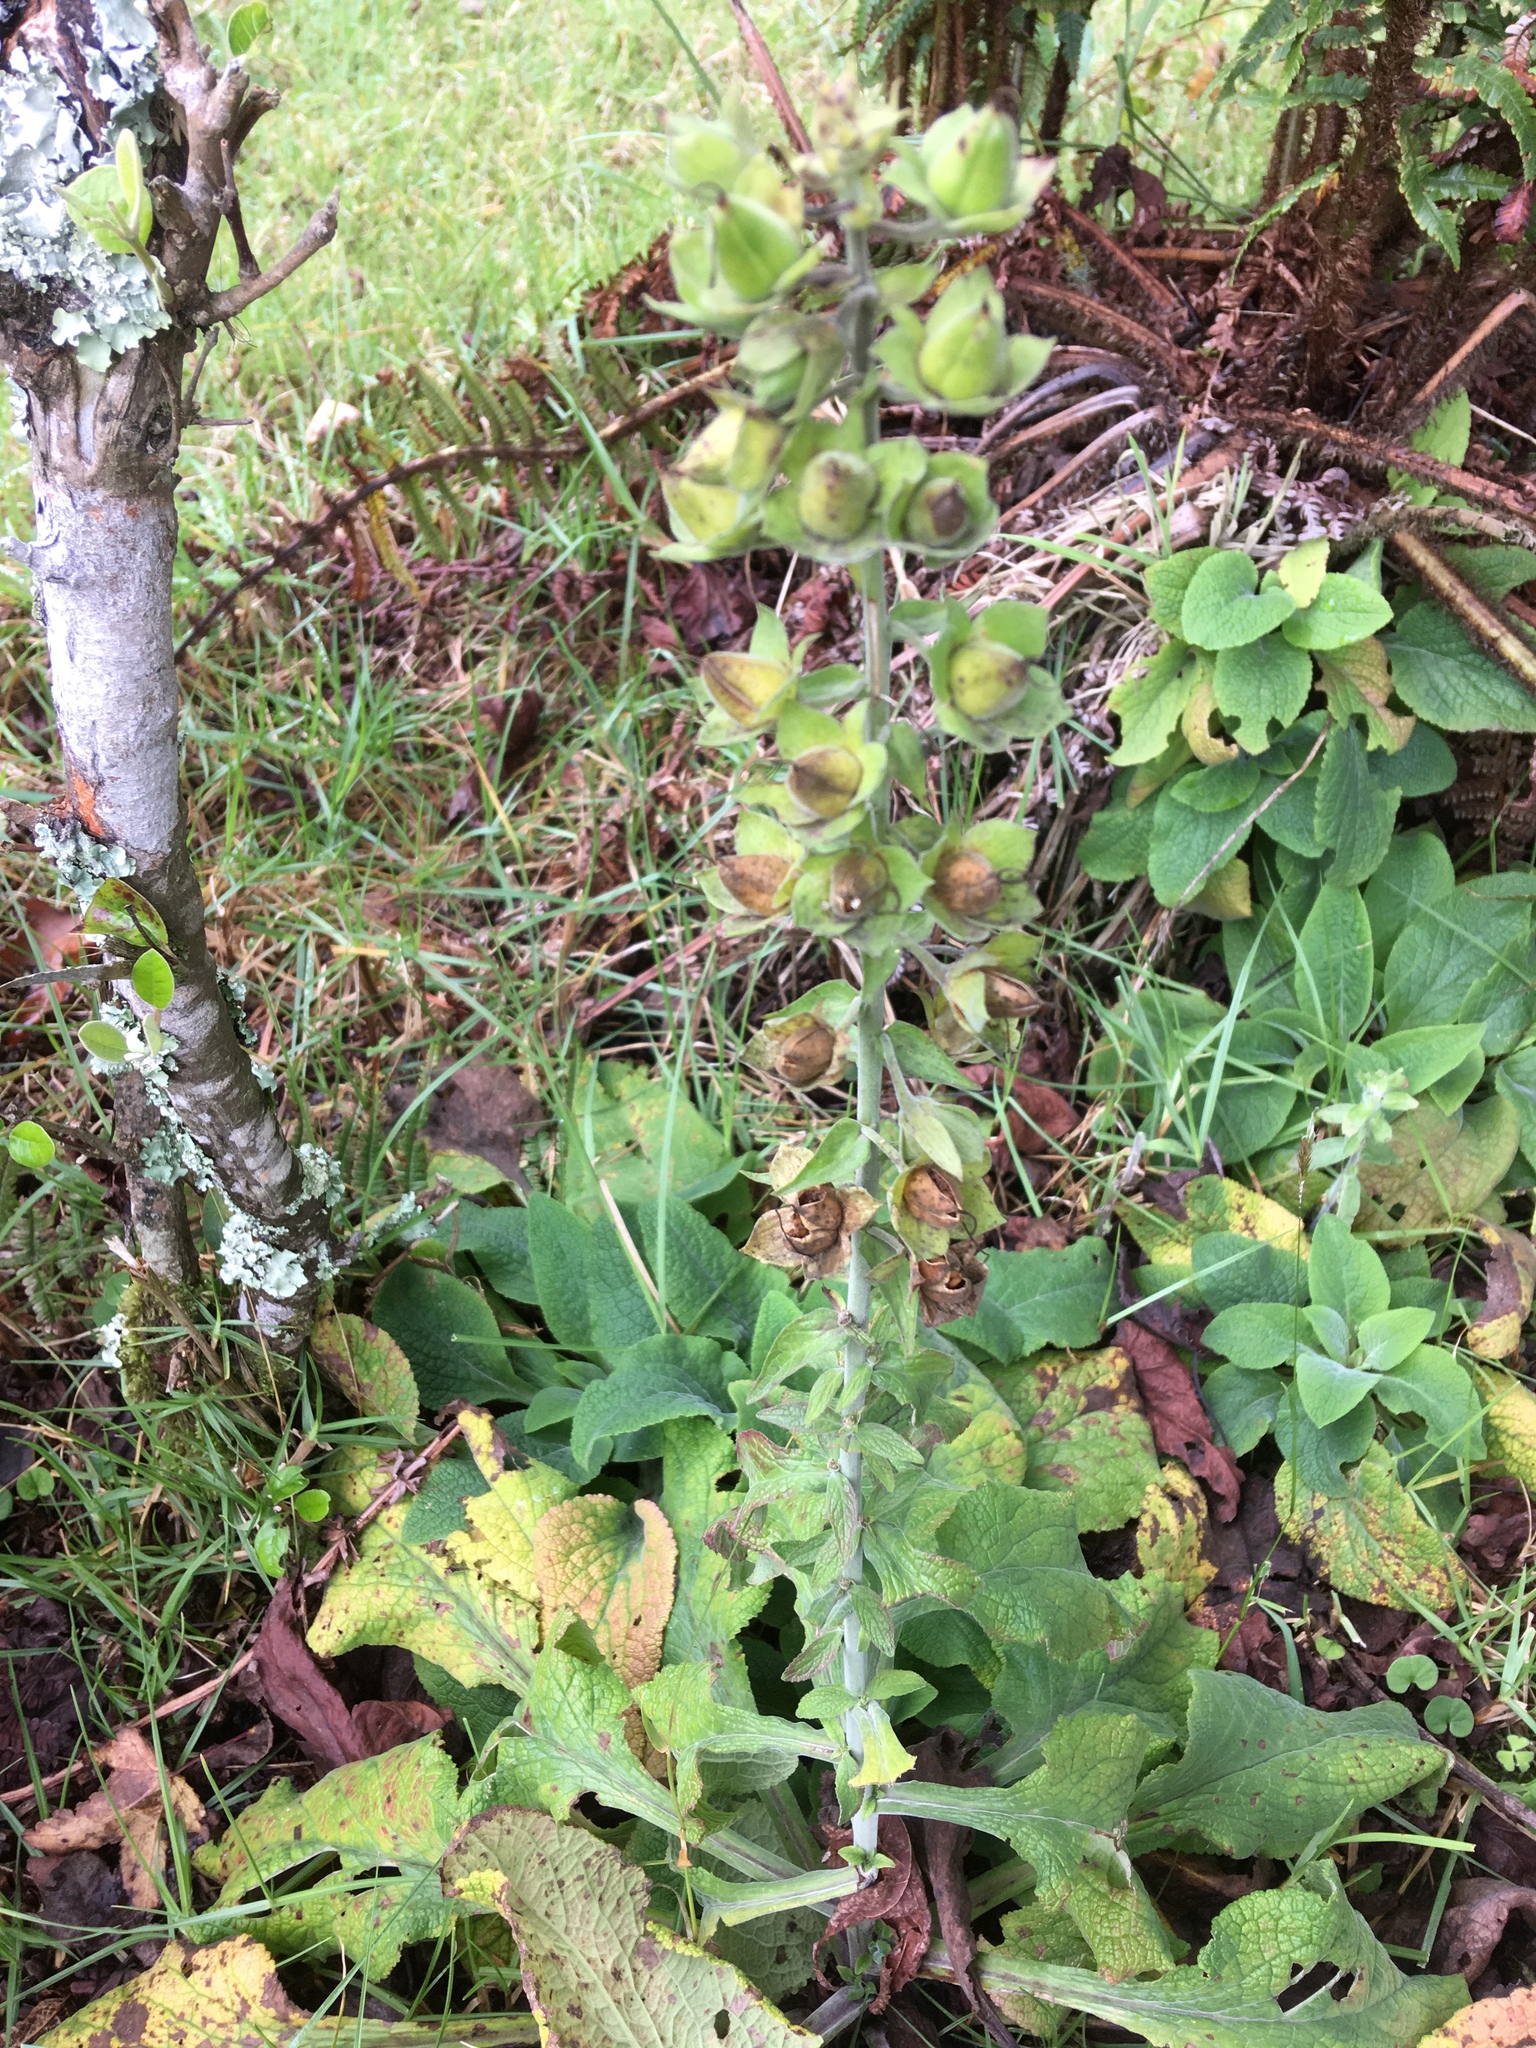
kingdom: Plantae
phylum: Tracheophyta
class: Magnoliopsida
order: Lamiales
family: Plantaginaceae
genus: Digitalis
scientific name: Digitalis purpurea
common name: Foxglove
